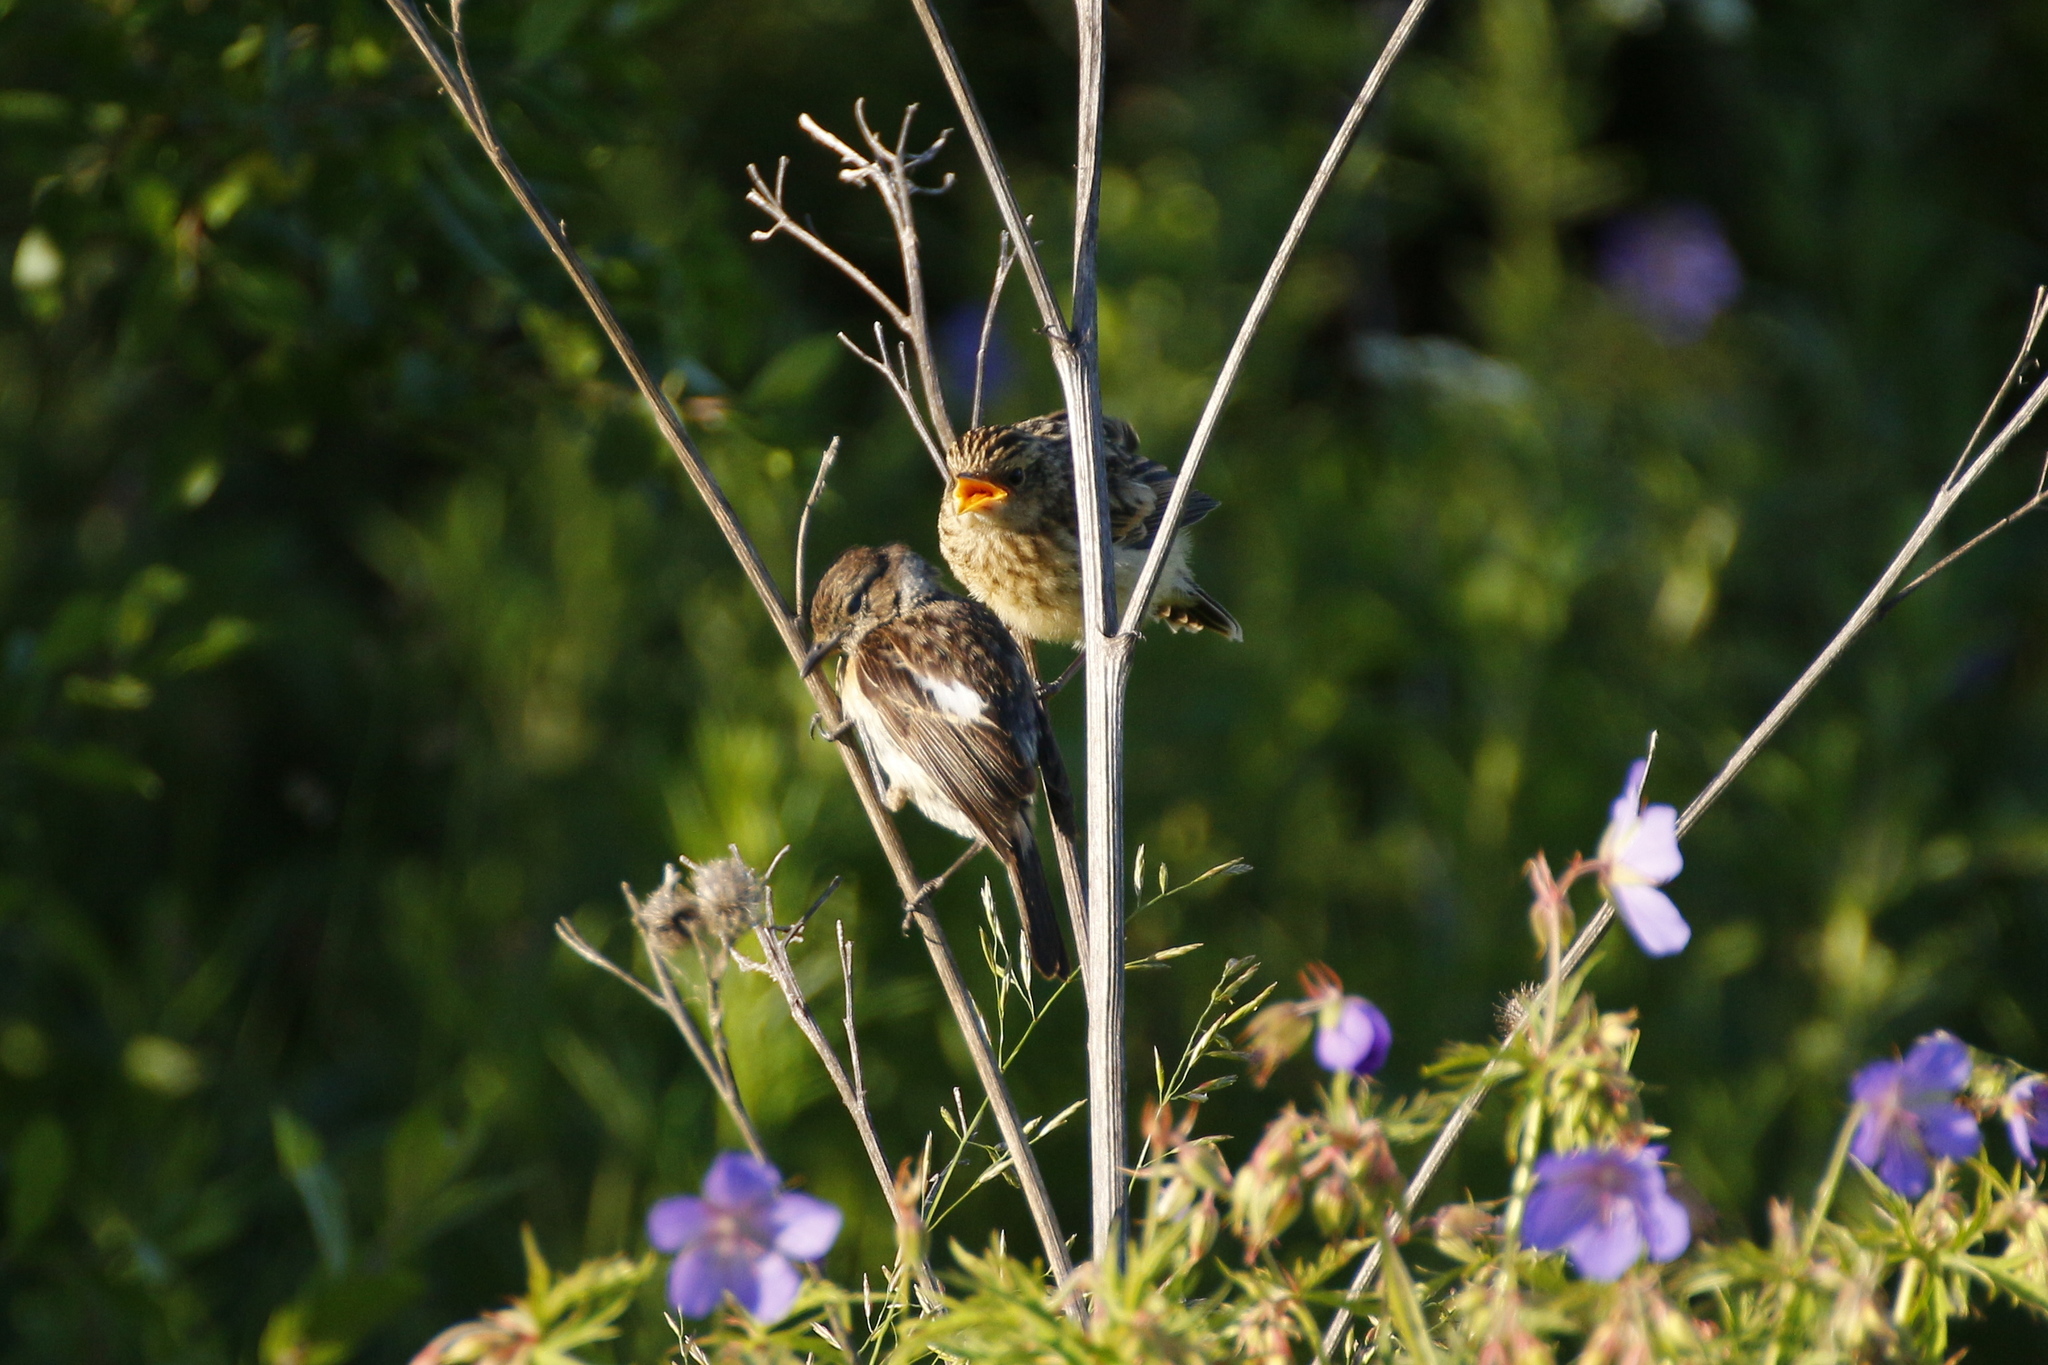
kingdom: Animalia
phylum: Chordata
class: Aves
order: Passeriformes
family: Muscicapidae
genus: Saxicola
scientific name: Saxicola maurus
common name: Siberian stonechat
